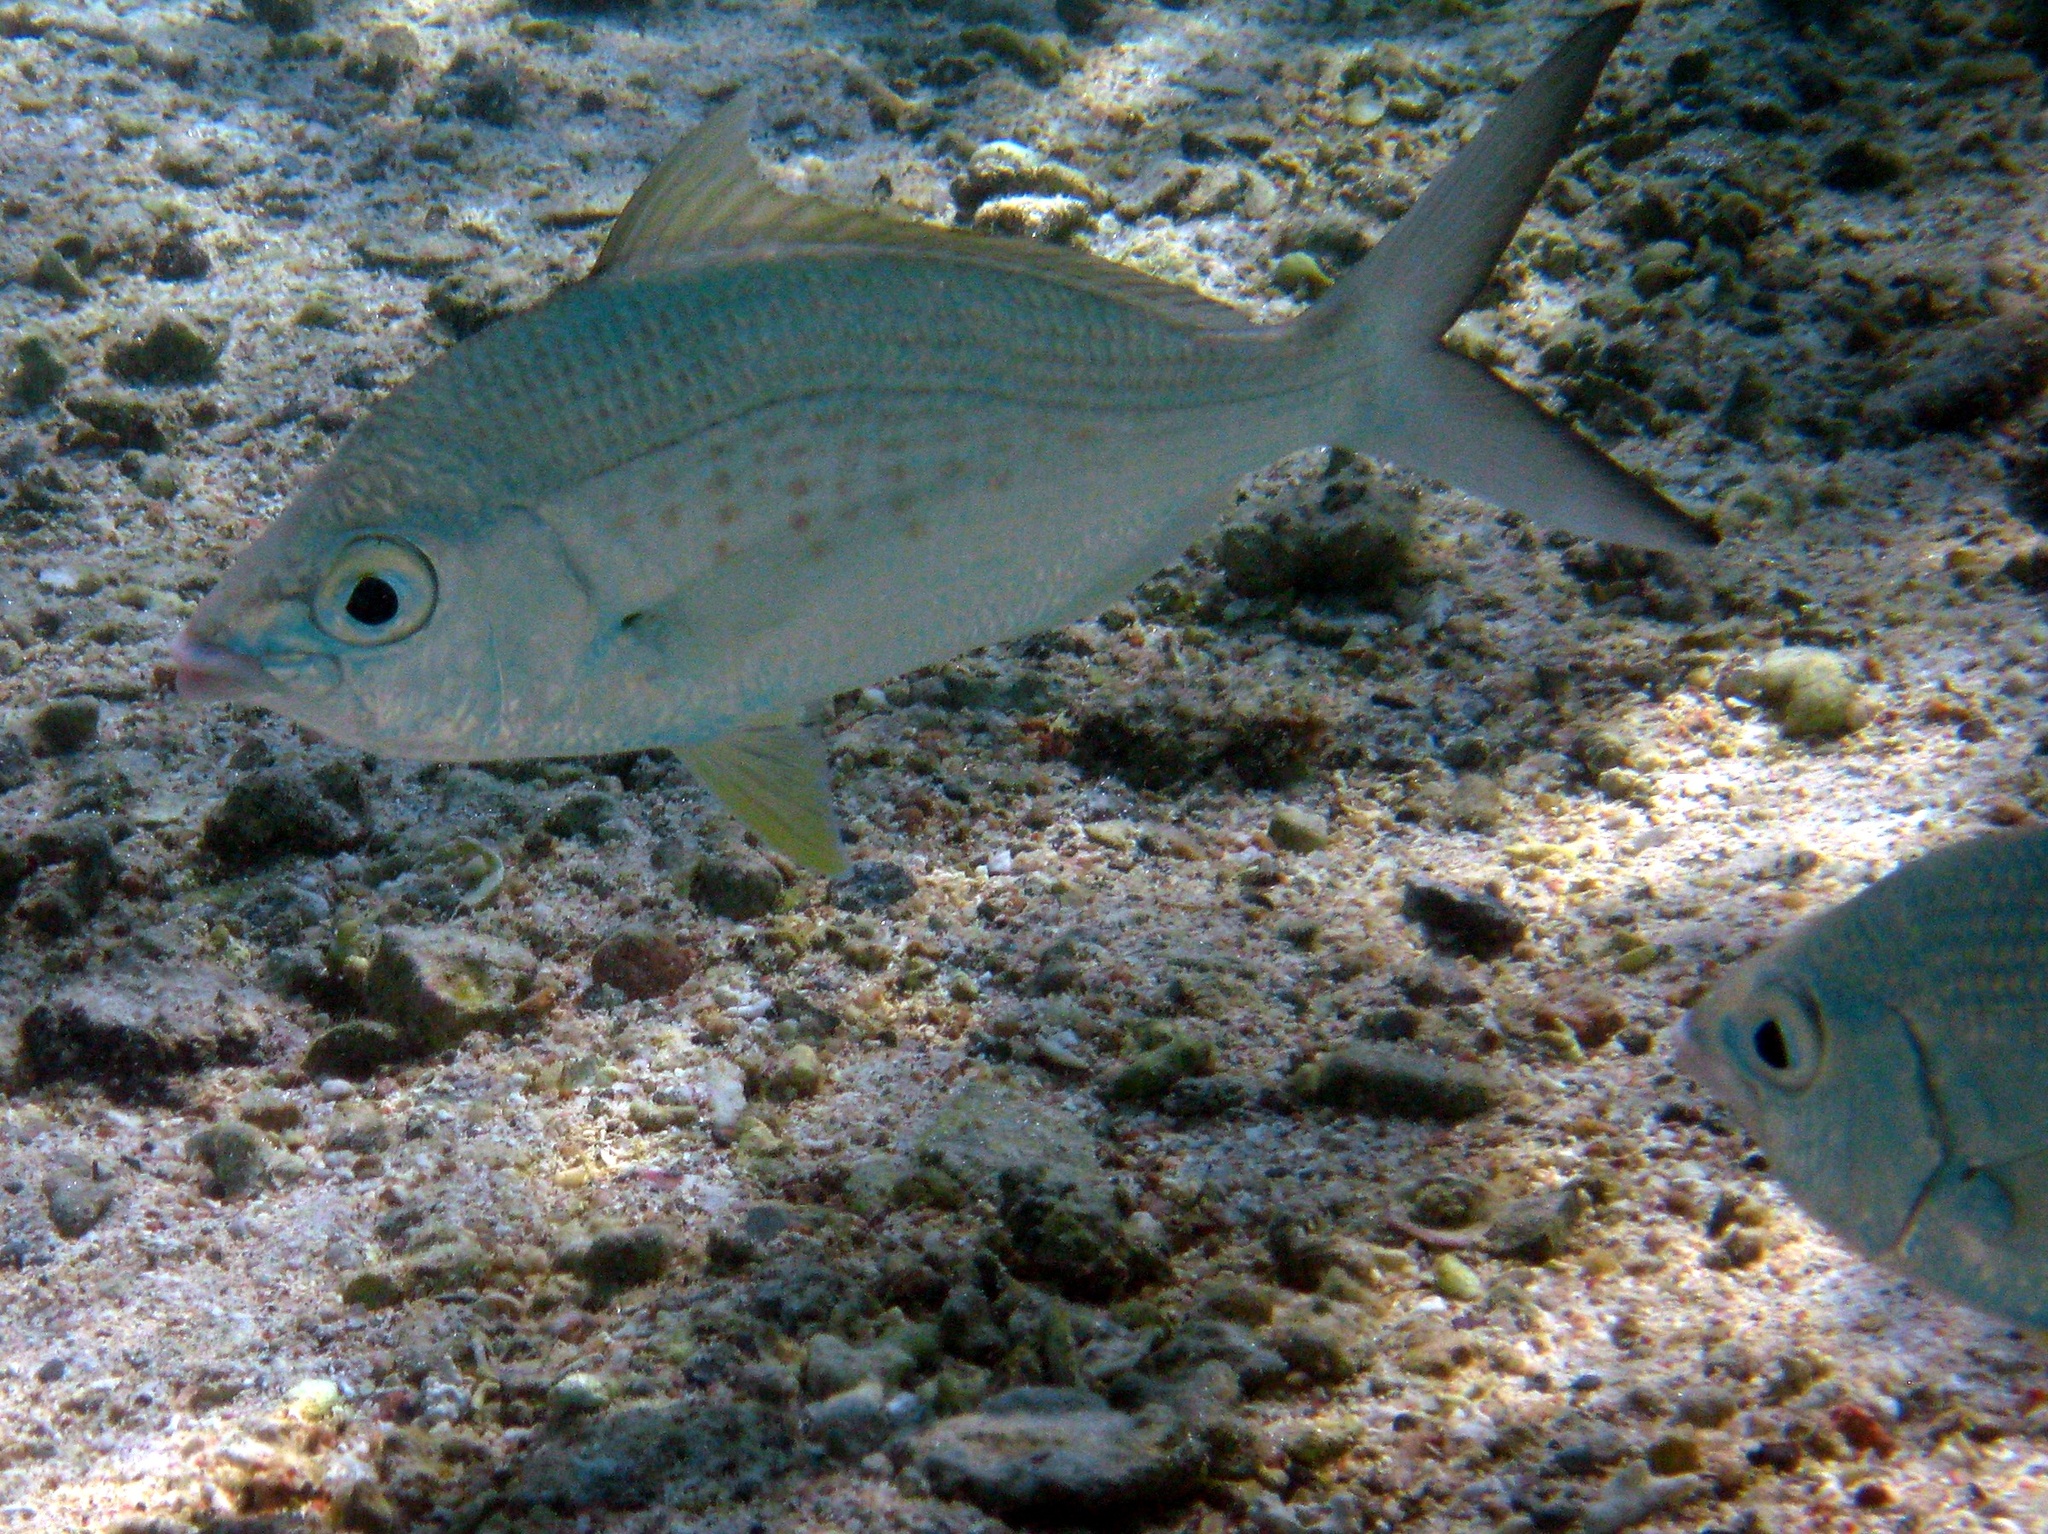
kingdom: Animalia
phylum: Chordata
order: Perciformes
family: Gerreidae
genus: Gerres
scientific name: Gerres longirostris
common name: Strongspine silver-biddy
